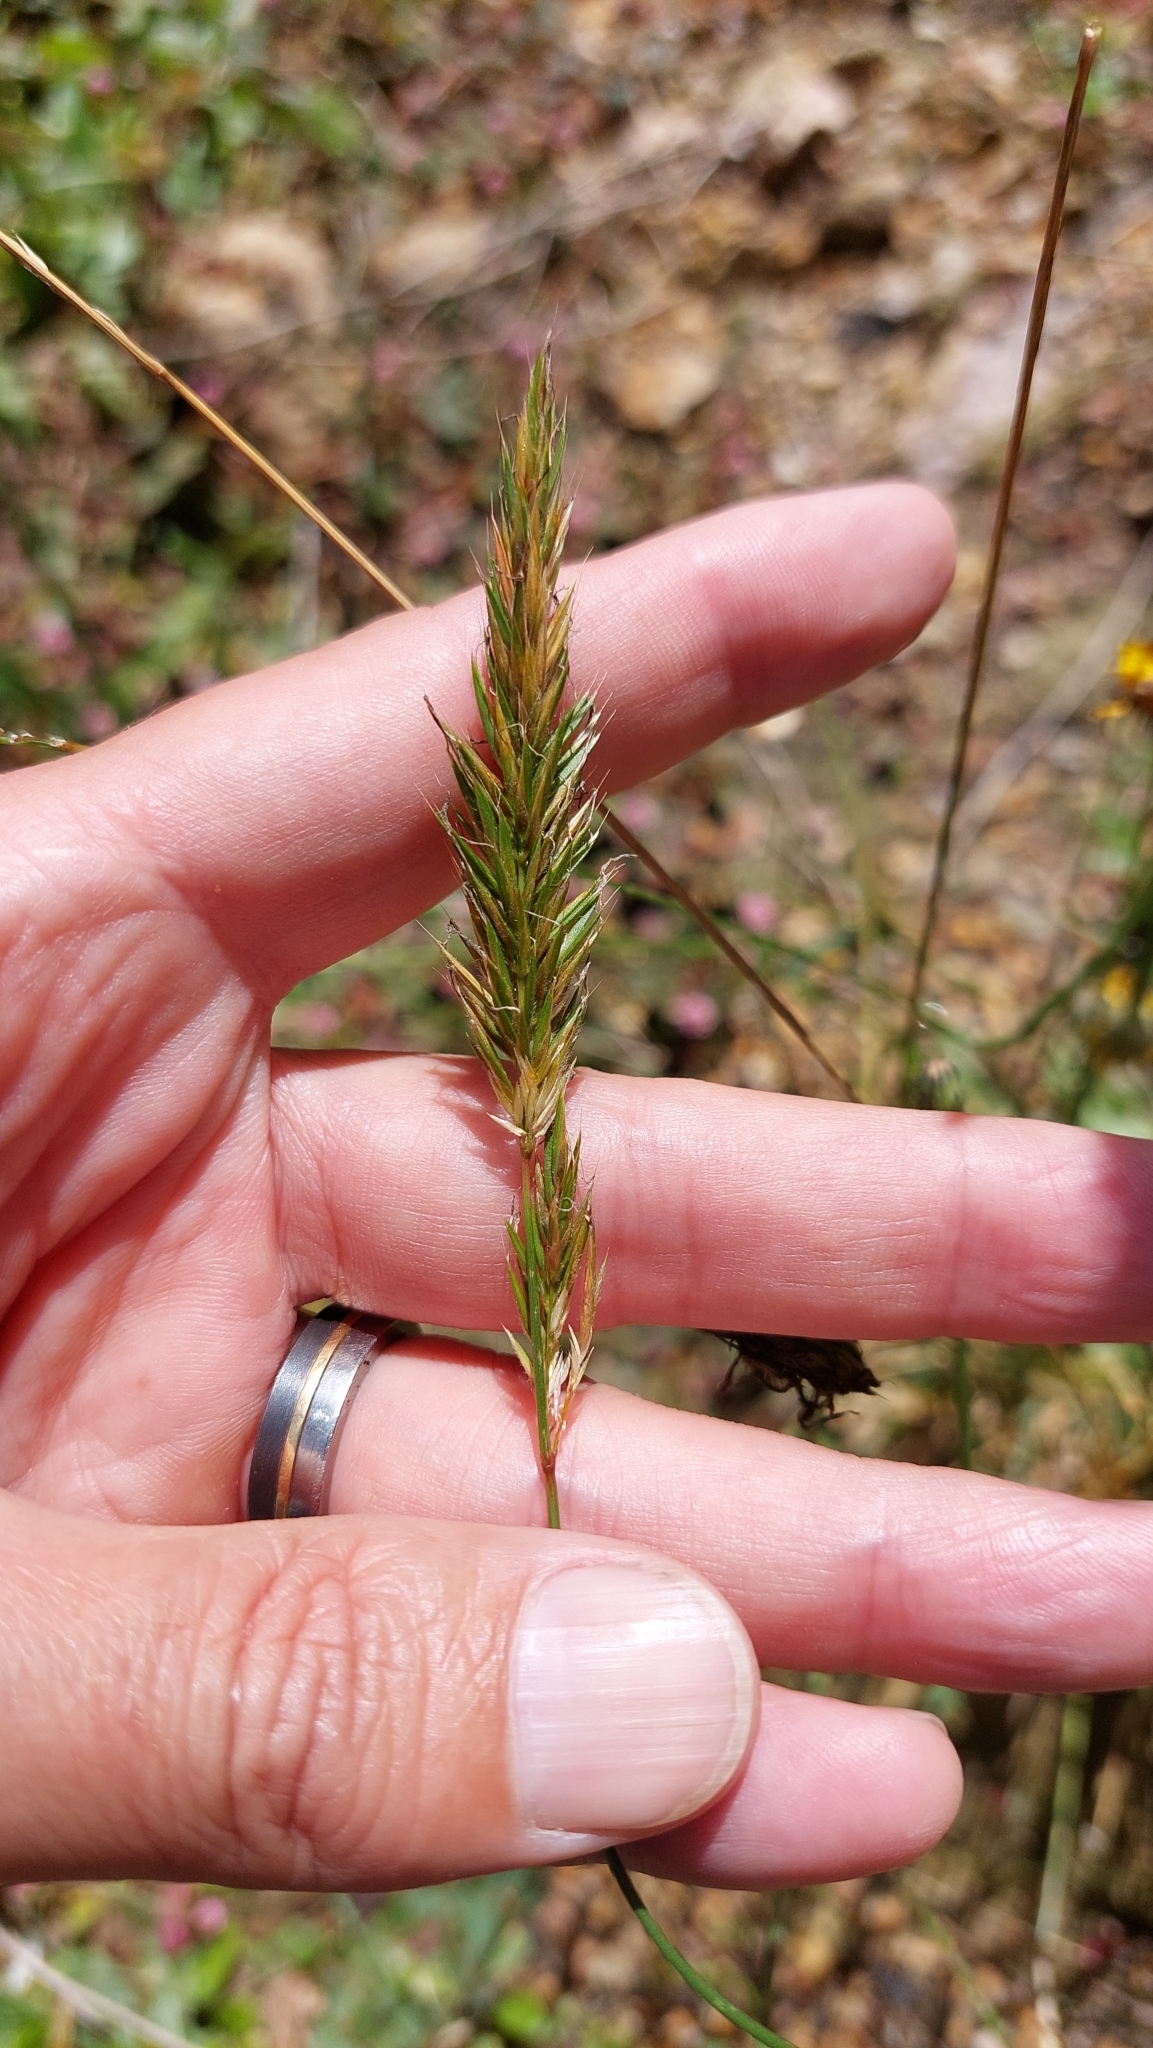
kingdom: Plantae
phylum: Tracheophyta
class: Liliopsida
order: Poales
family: Poaceae
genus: Anthoxanthum
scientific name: Anthoxanthum odoratum
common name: Sweet vernalgrass
